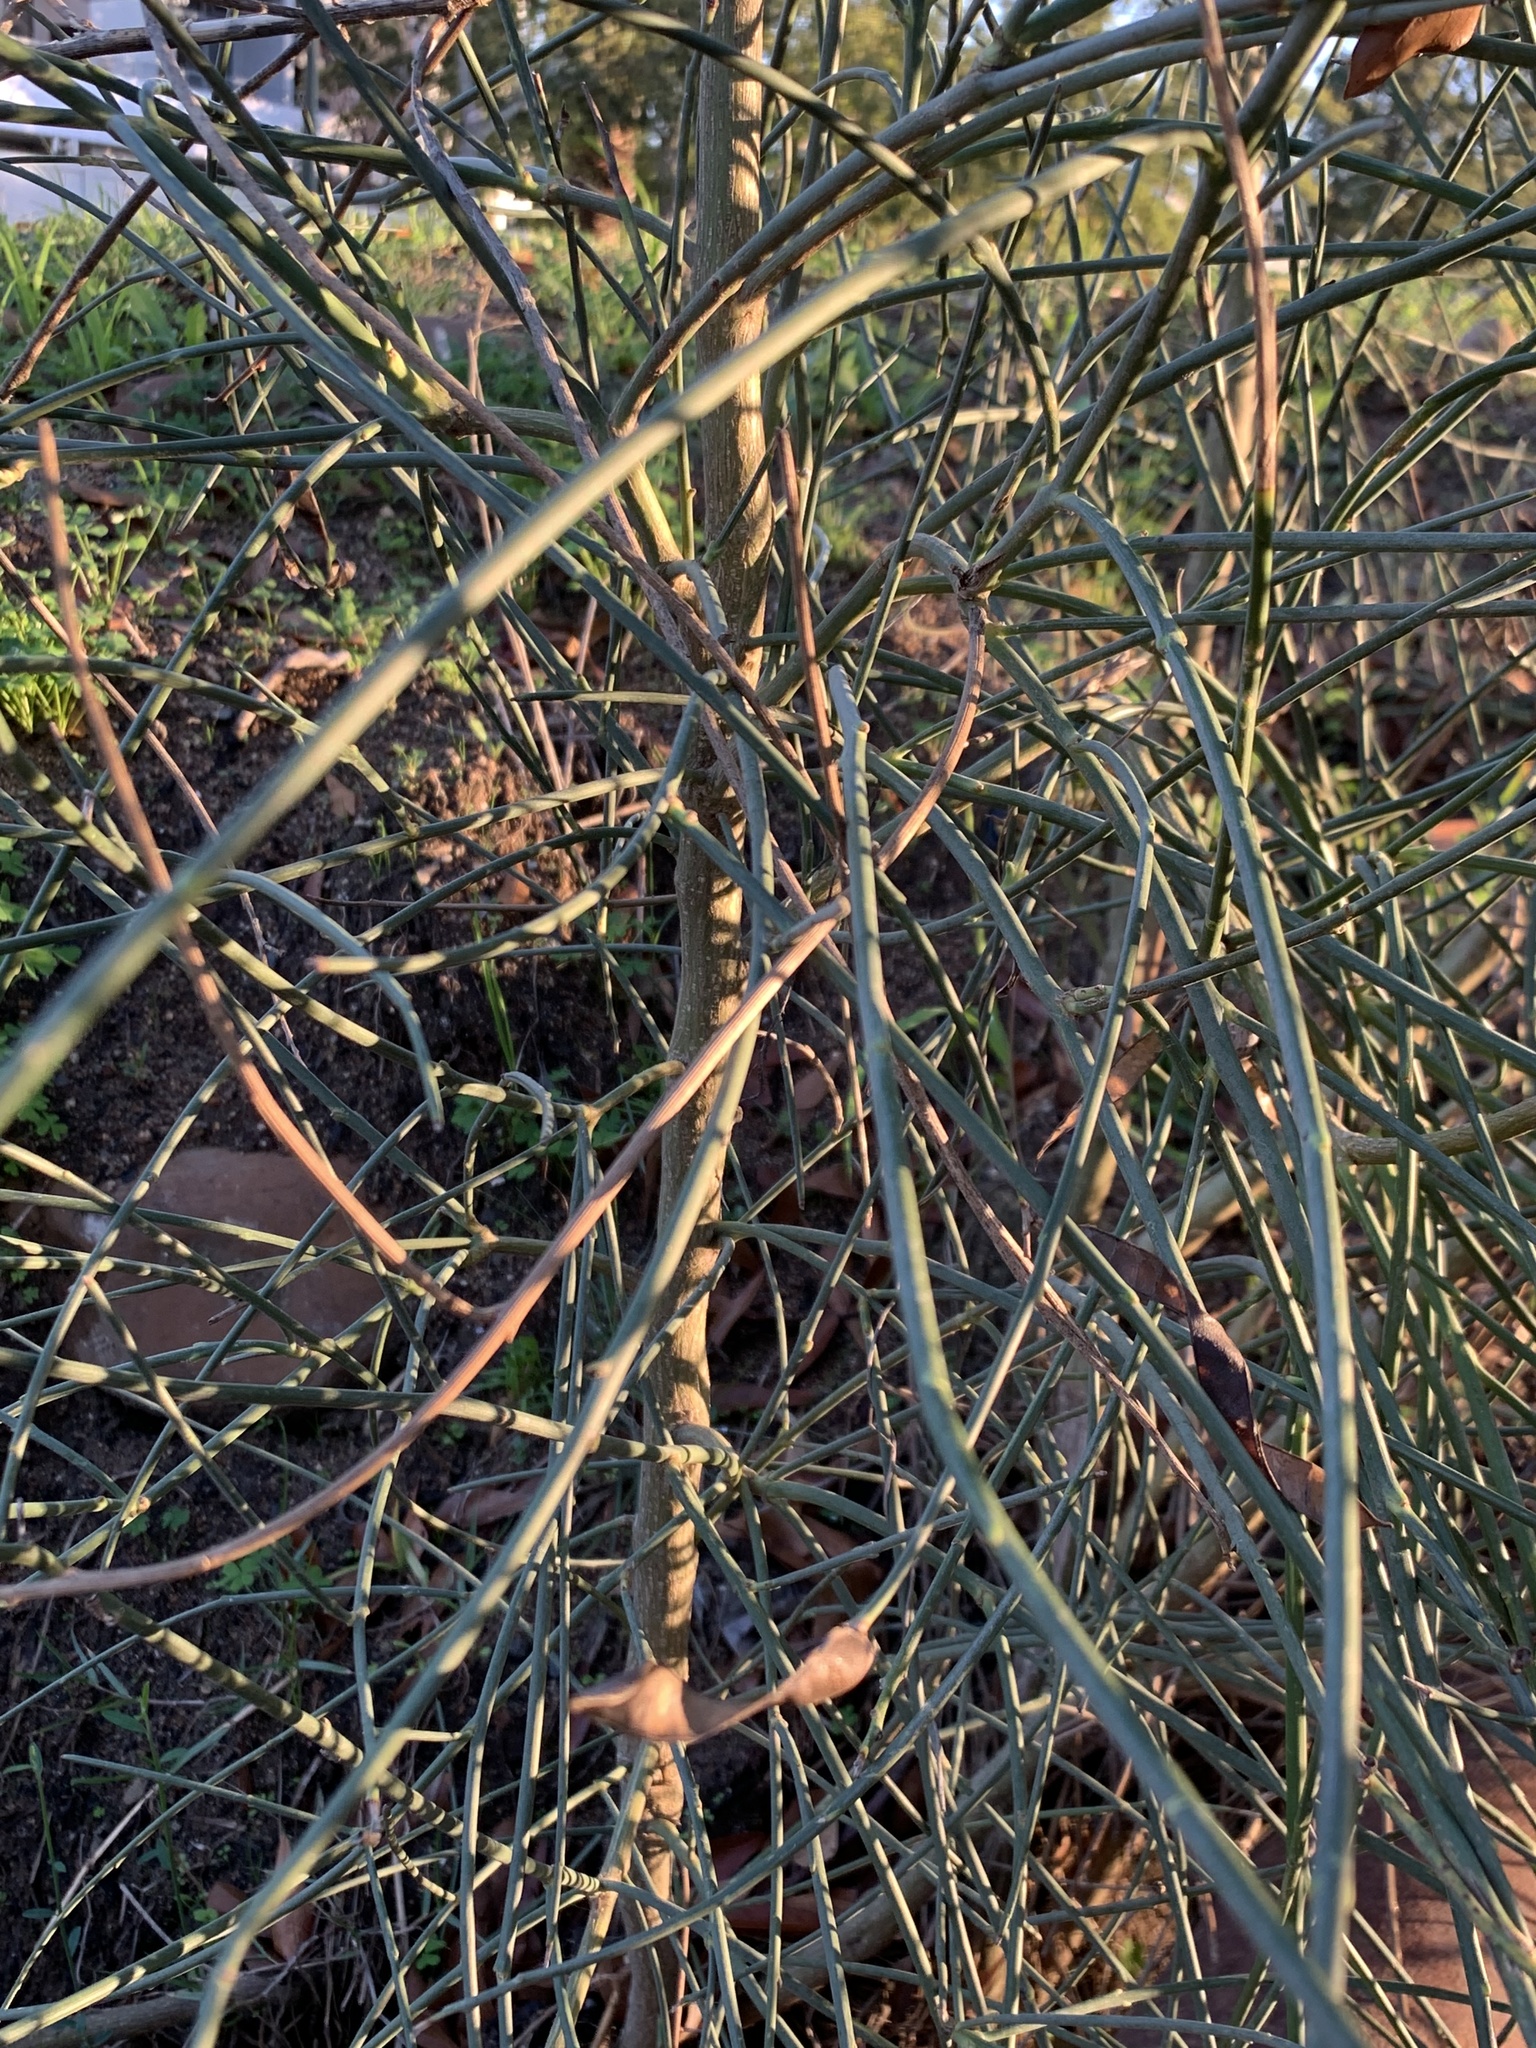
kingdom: Plantae
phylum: Tracheophyta
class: Magnoliopsida
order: Fabales
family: Fabaceae
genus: Spartium
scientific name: Spartium junceum
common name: Spanish broom
